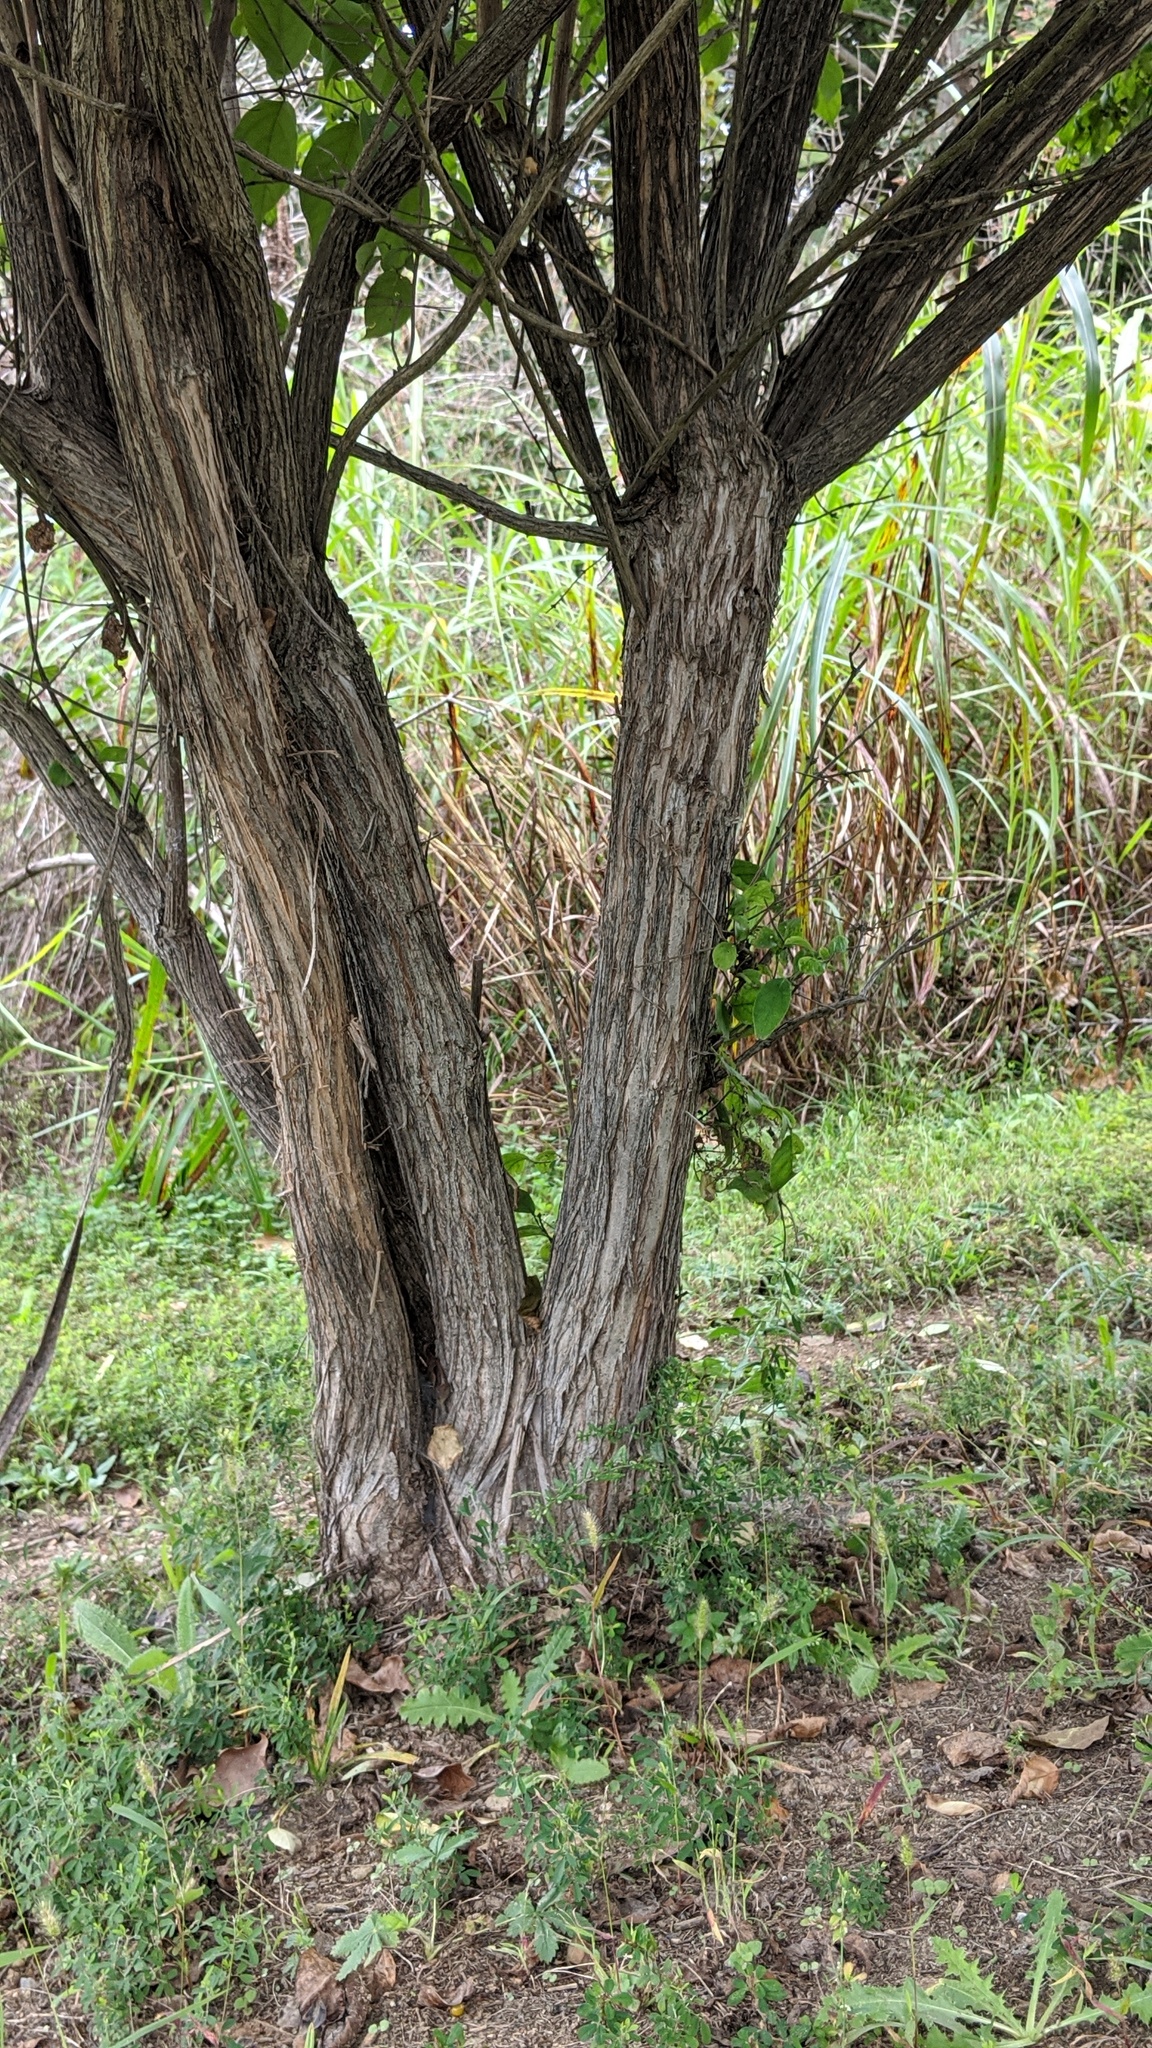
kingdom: Plantae
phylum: Tracheophyta
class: Magnoliopsida
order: Dipsacales
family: Caprifoliaceae
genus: Lonicera
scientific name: Lonicera maackii
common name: Amur honeysuckle
